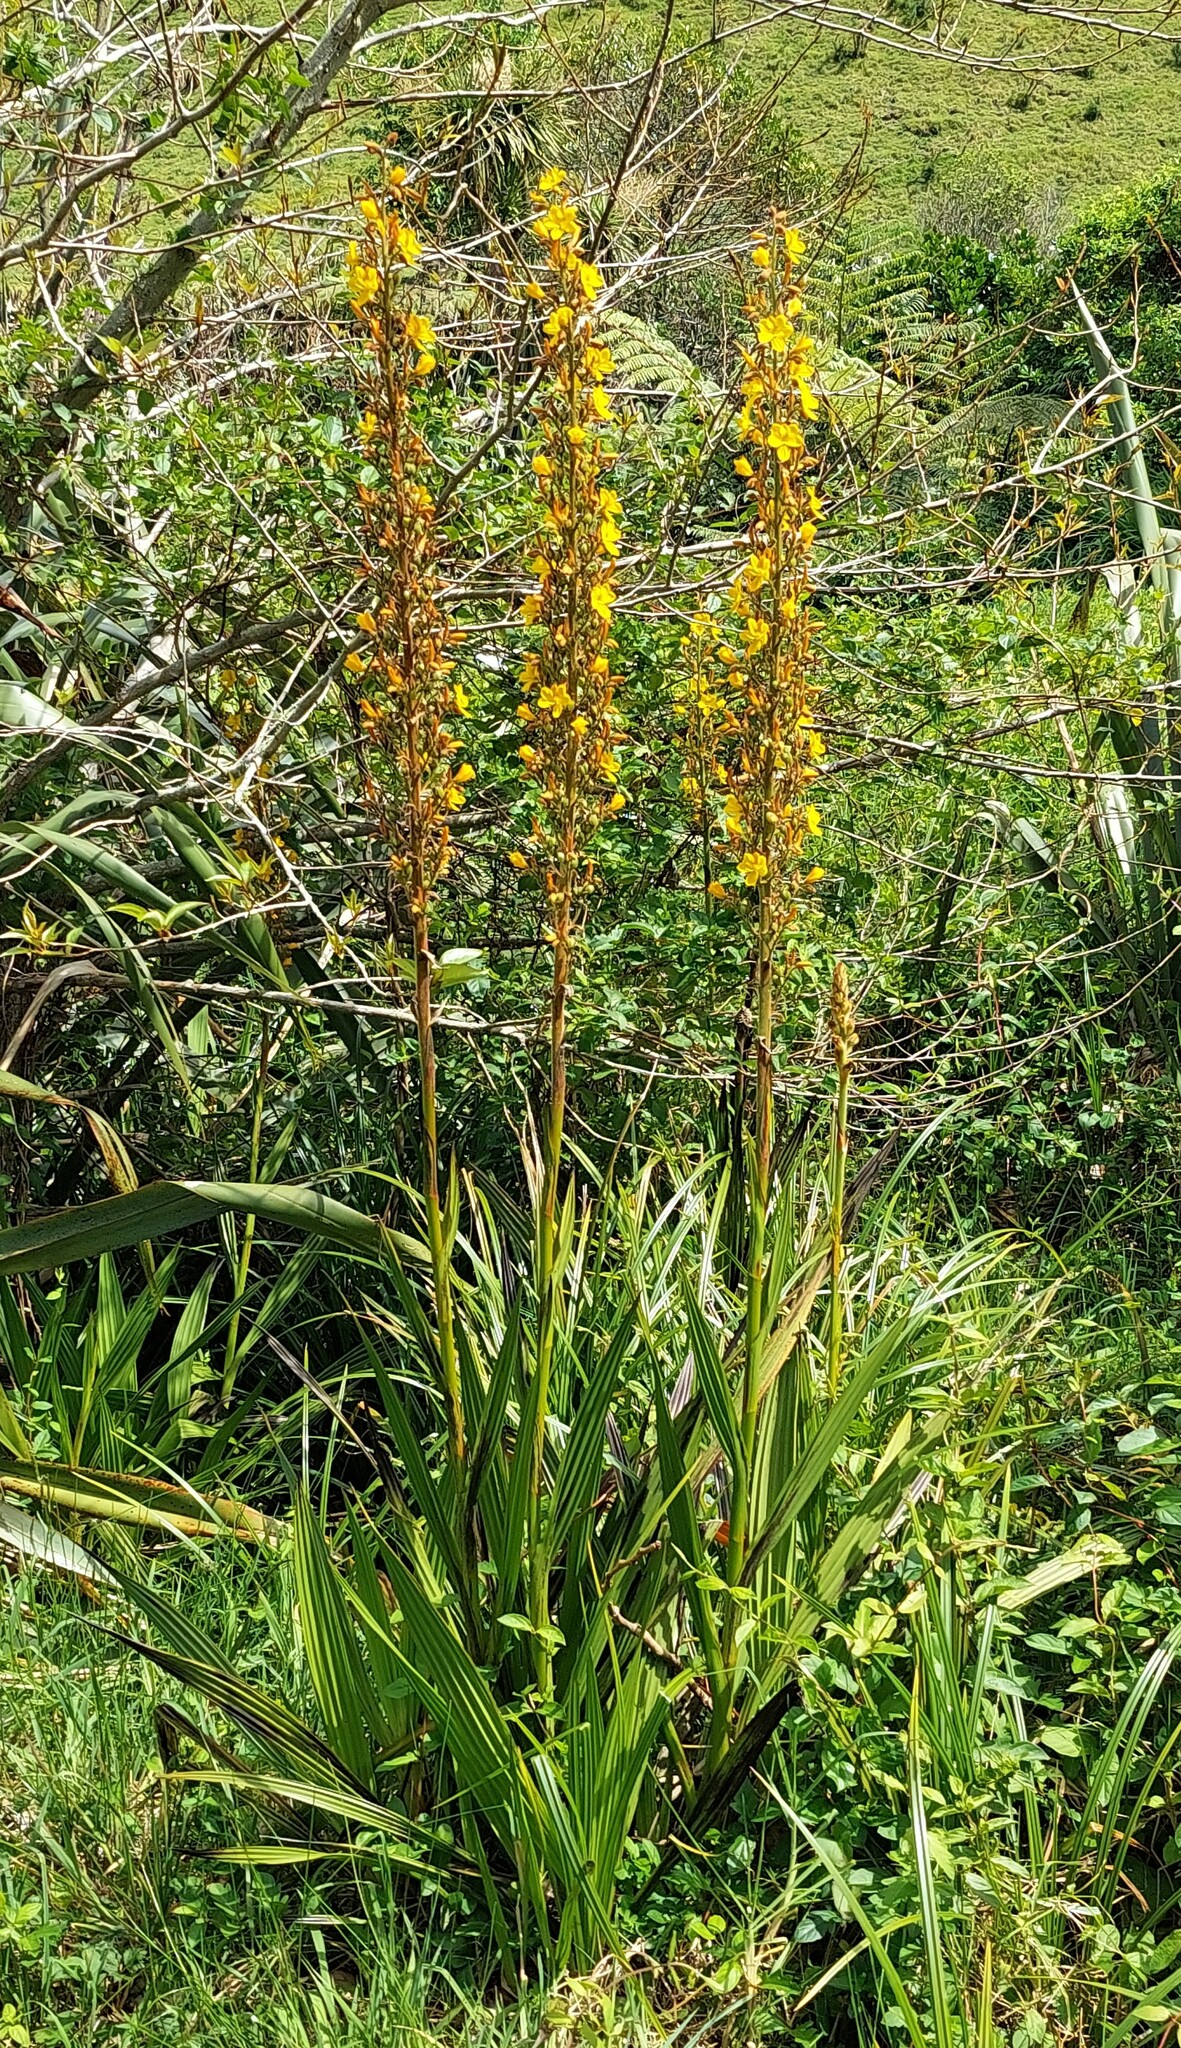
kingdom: Plantae
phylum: Tracheophyta
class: Liliopsida
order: Commelinales
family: Haemodoraceae
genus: Wachendorfia
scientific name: Wachendorfia thyrsiflora
